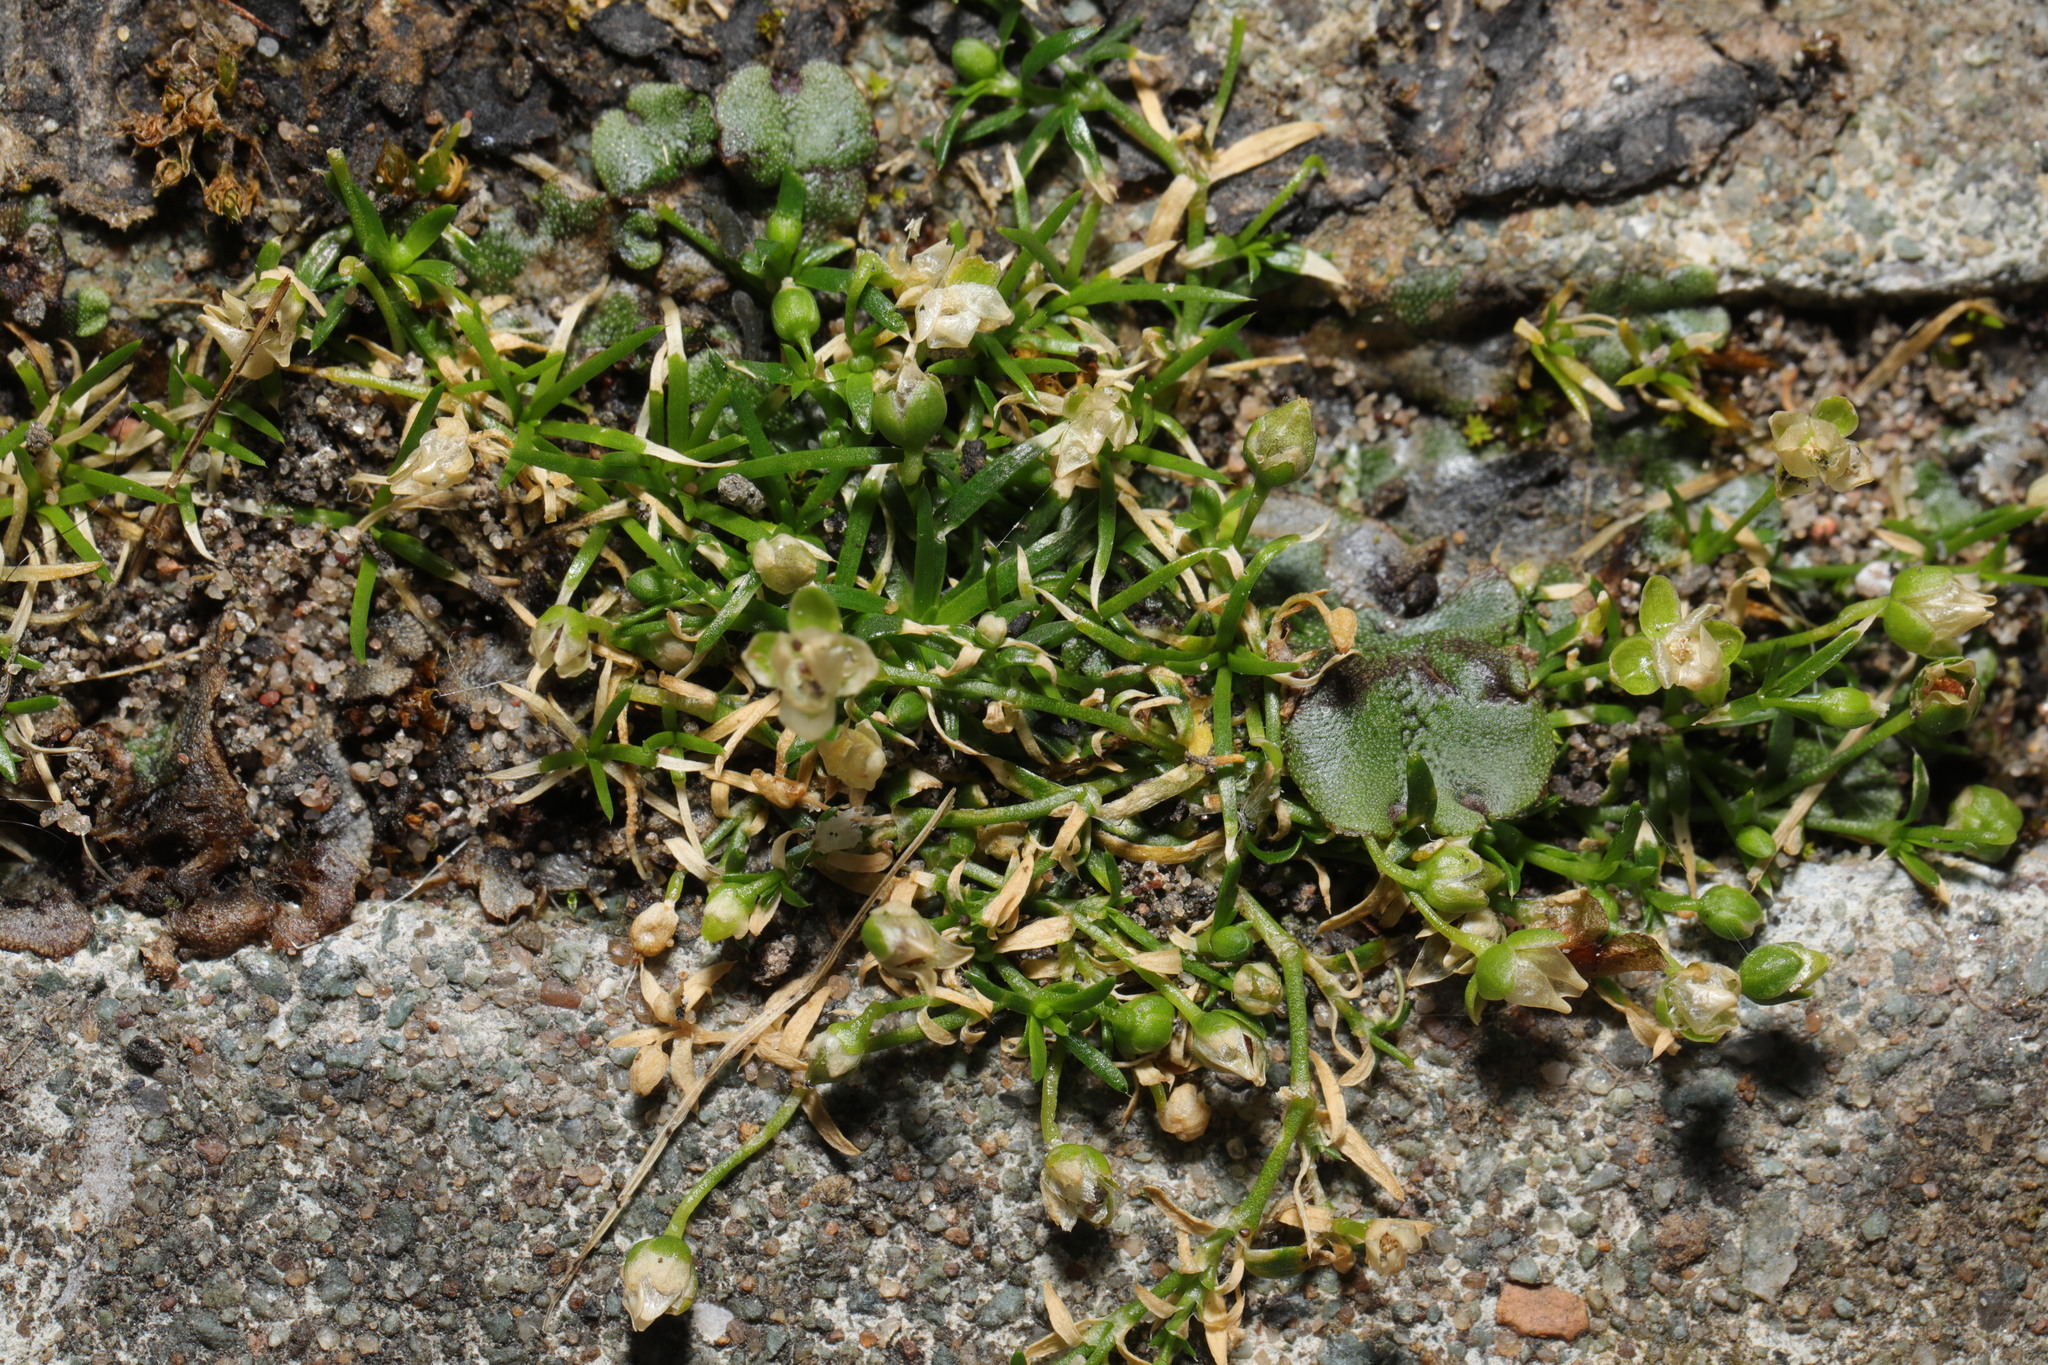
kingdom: Plantae
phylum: Tracheophyta
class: Magnoliopsida
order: Caryophyllales
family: Caryophyllaceae
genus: Sagina
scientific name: Sagina procumbens
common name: Procumbent pearlwort
